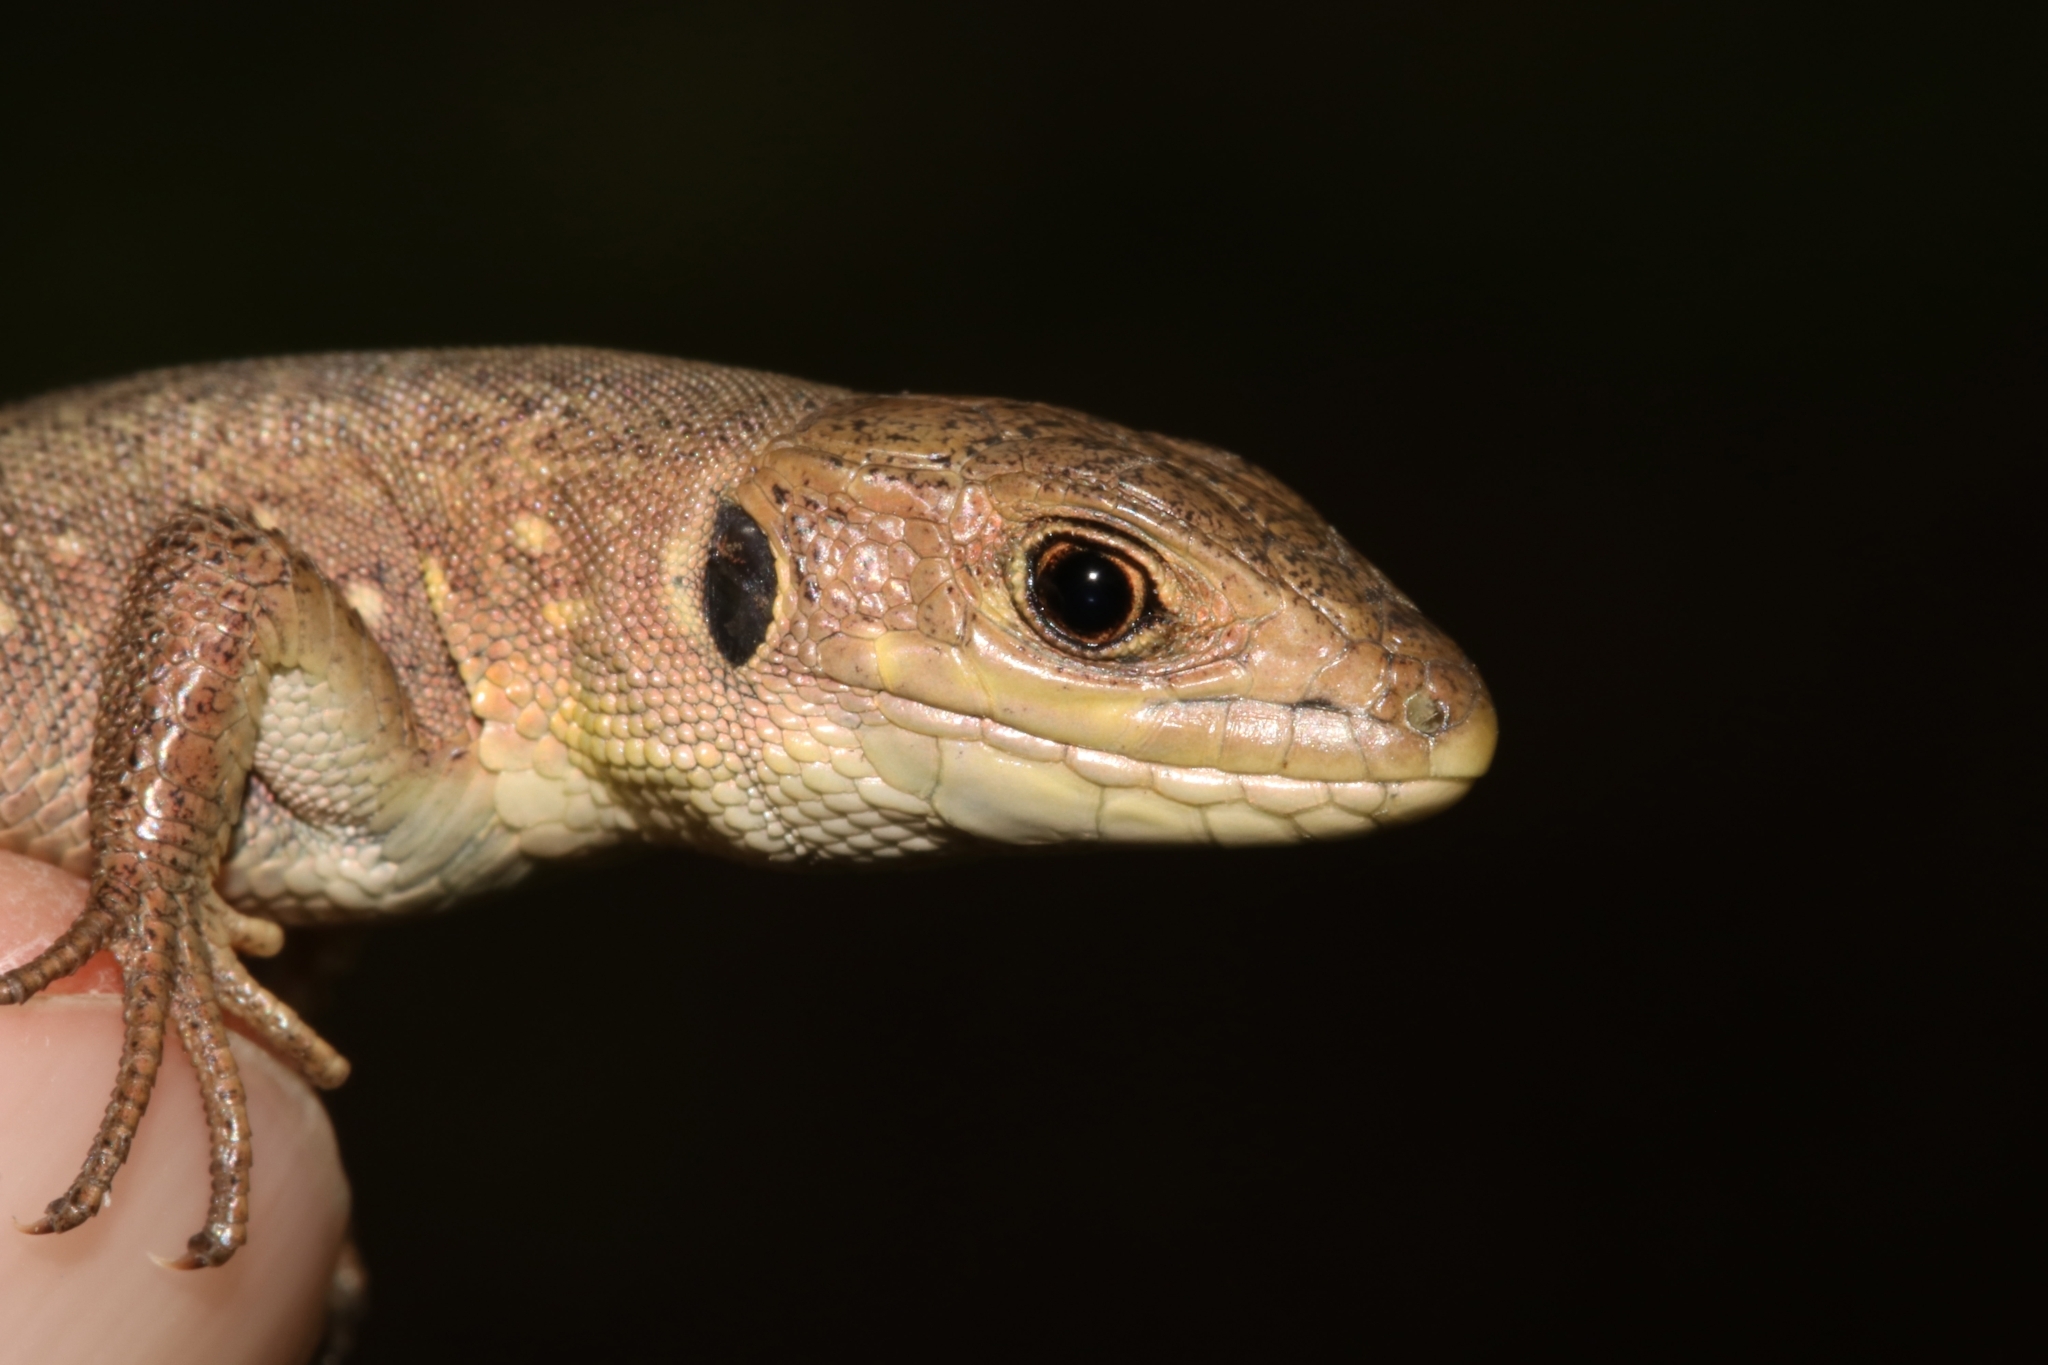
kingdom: Animalia
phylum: Chordata
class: Squamata
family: Lacertidae
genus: Lacerta
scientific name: Lacerta trilineata
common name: Balkan green lizard
